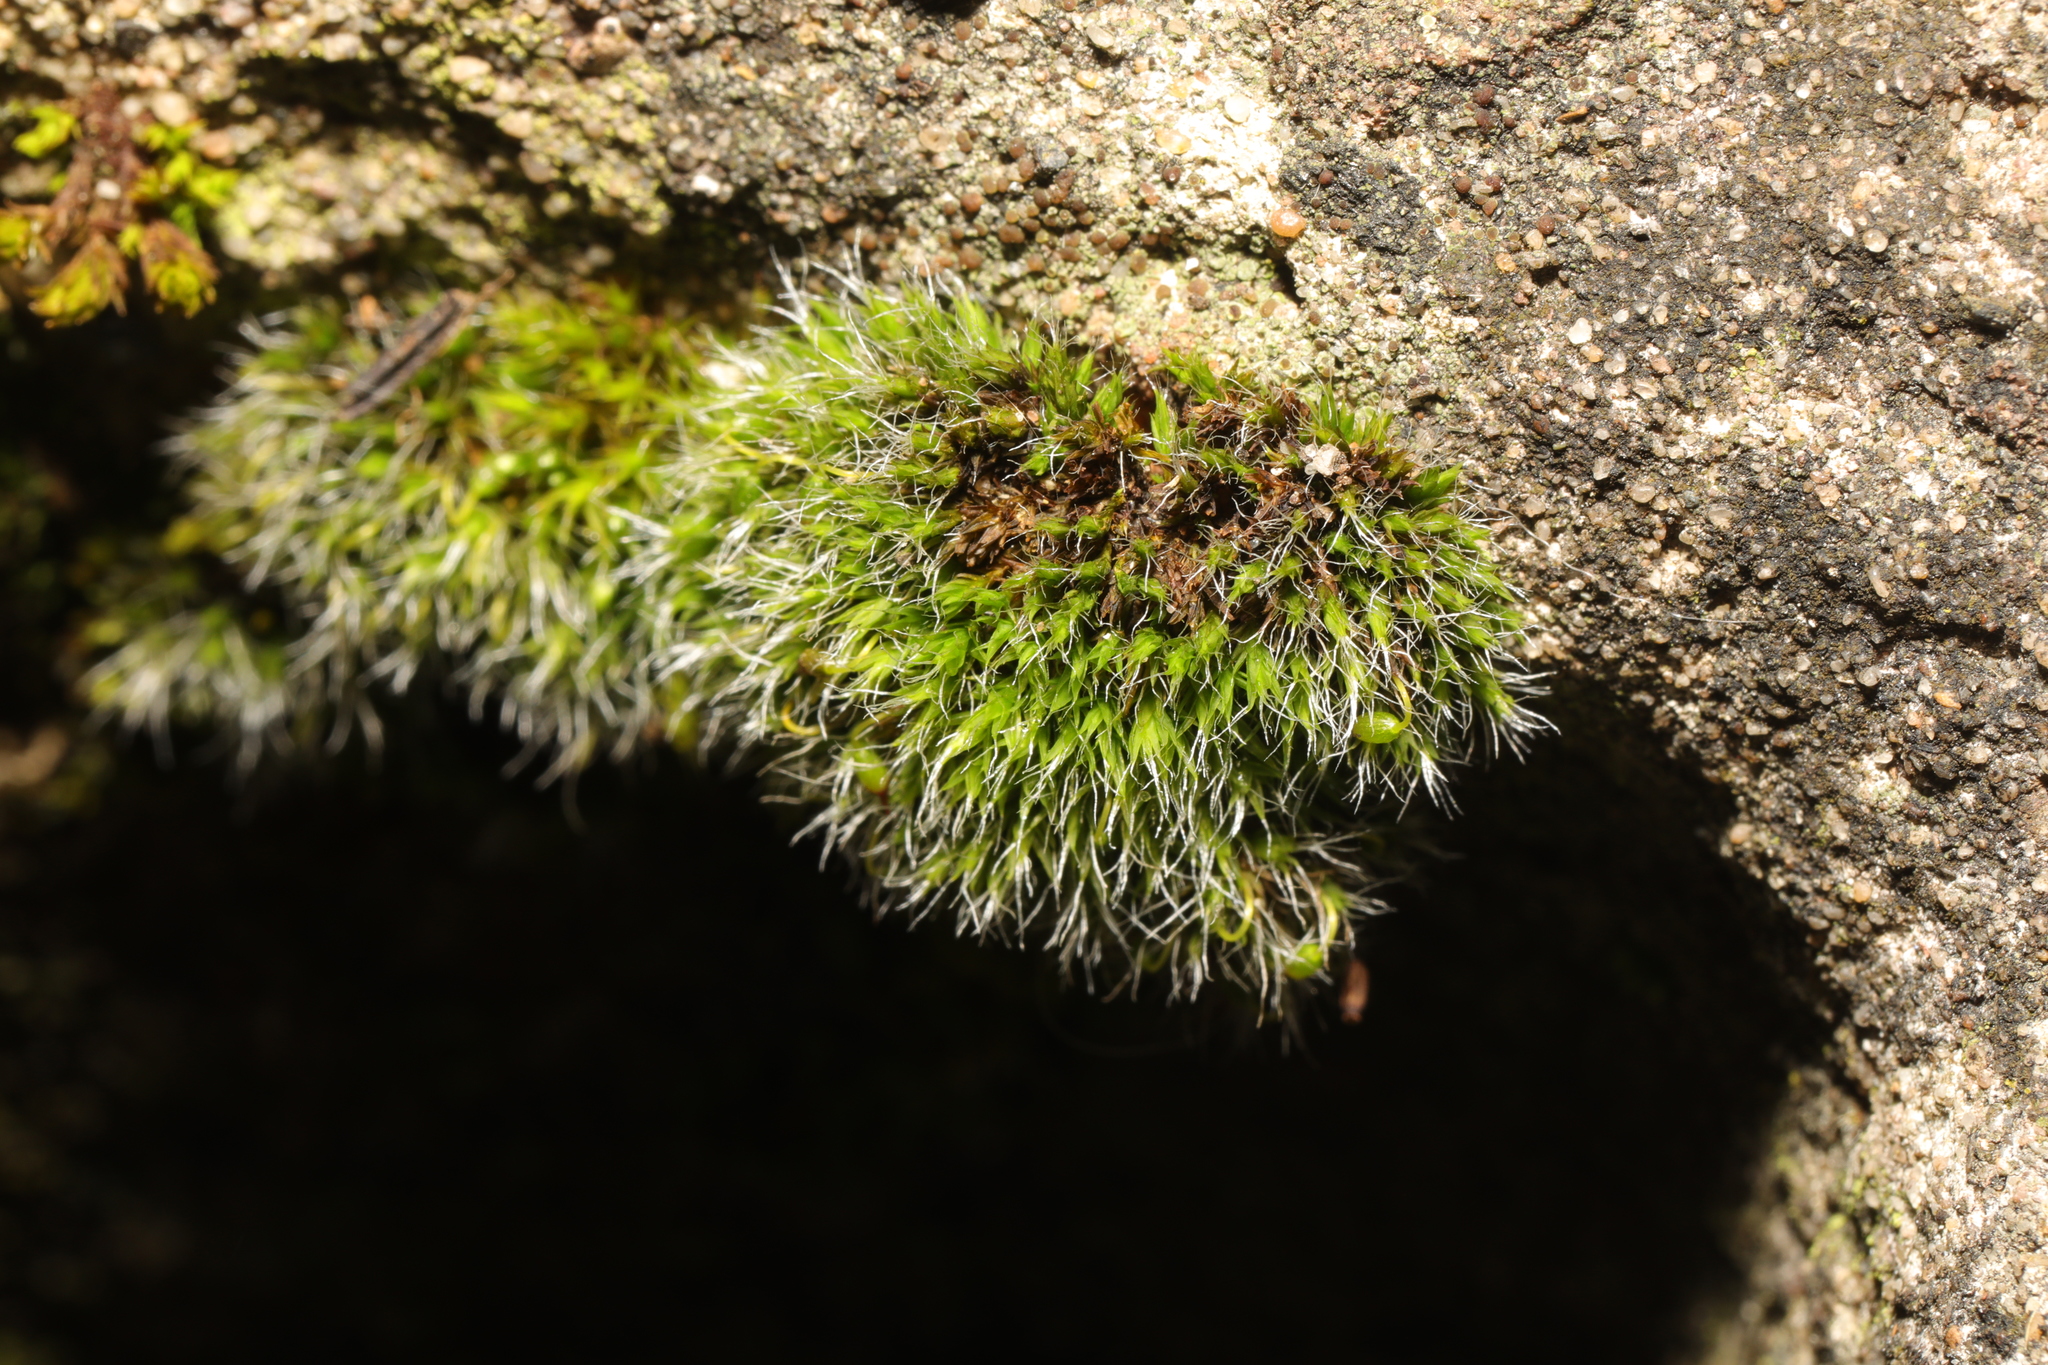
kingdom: Plantae
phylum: Bryophyta
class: Bryopsida
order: Grimmiales
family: Grimmiaceae
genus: Grimmia
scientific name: Grimmia pulvinata
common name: Grey-cushioned grimmia
